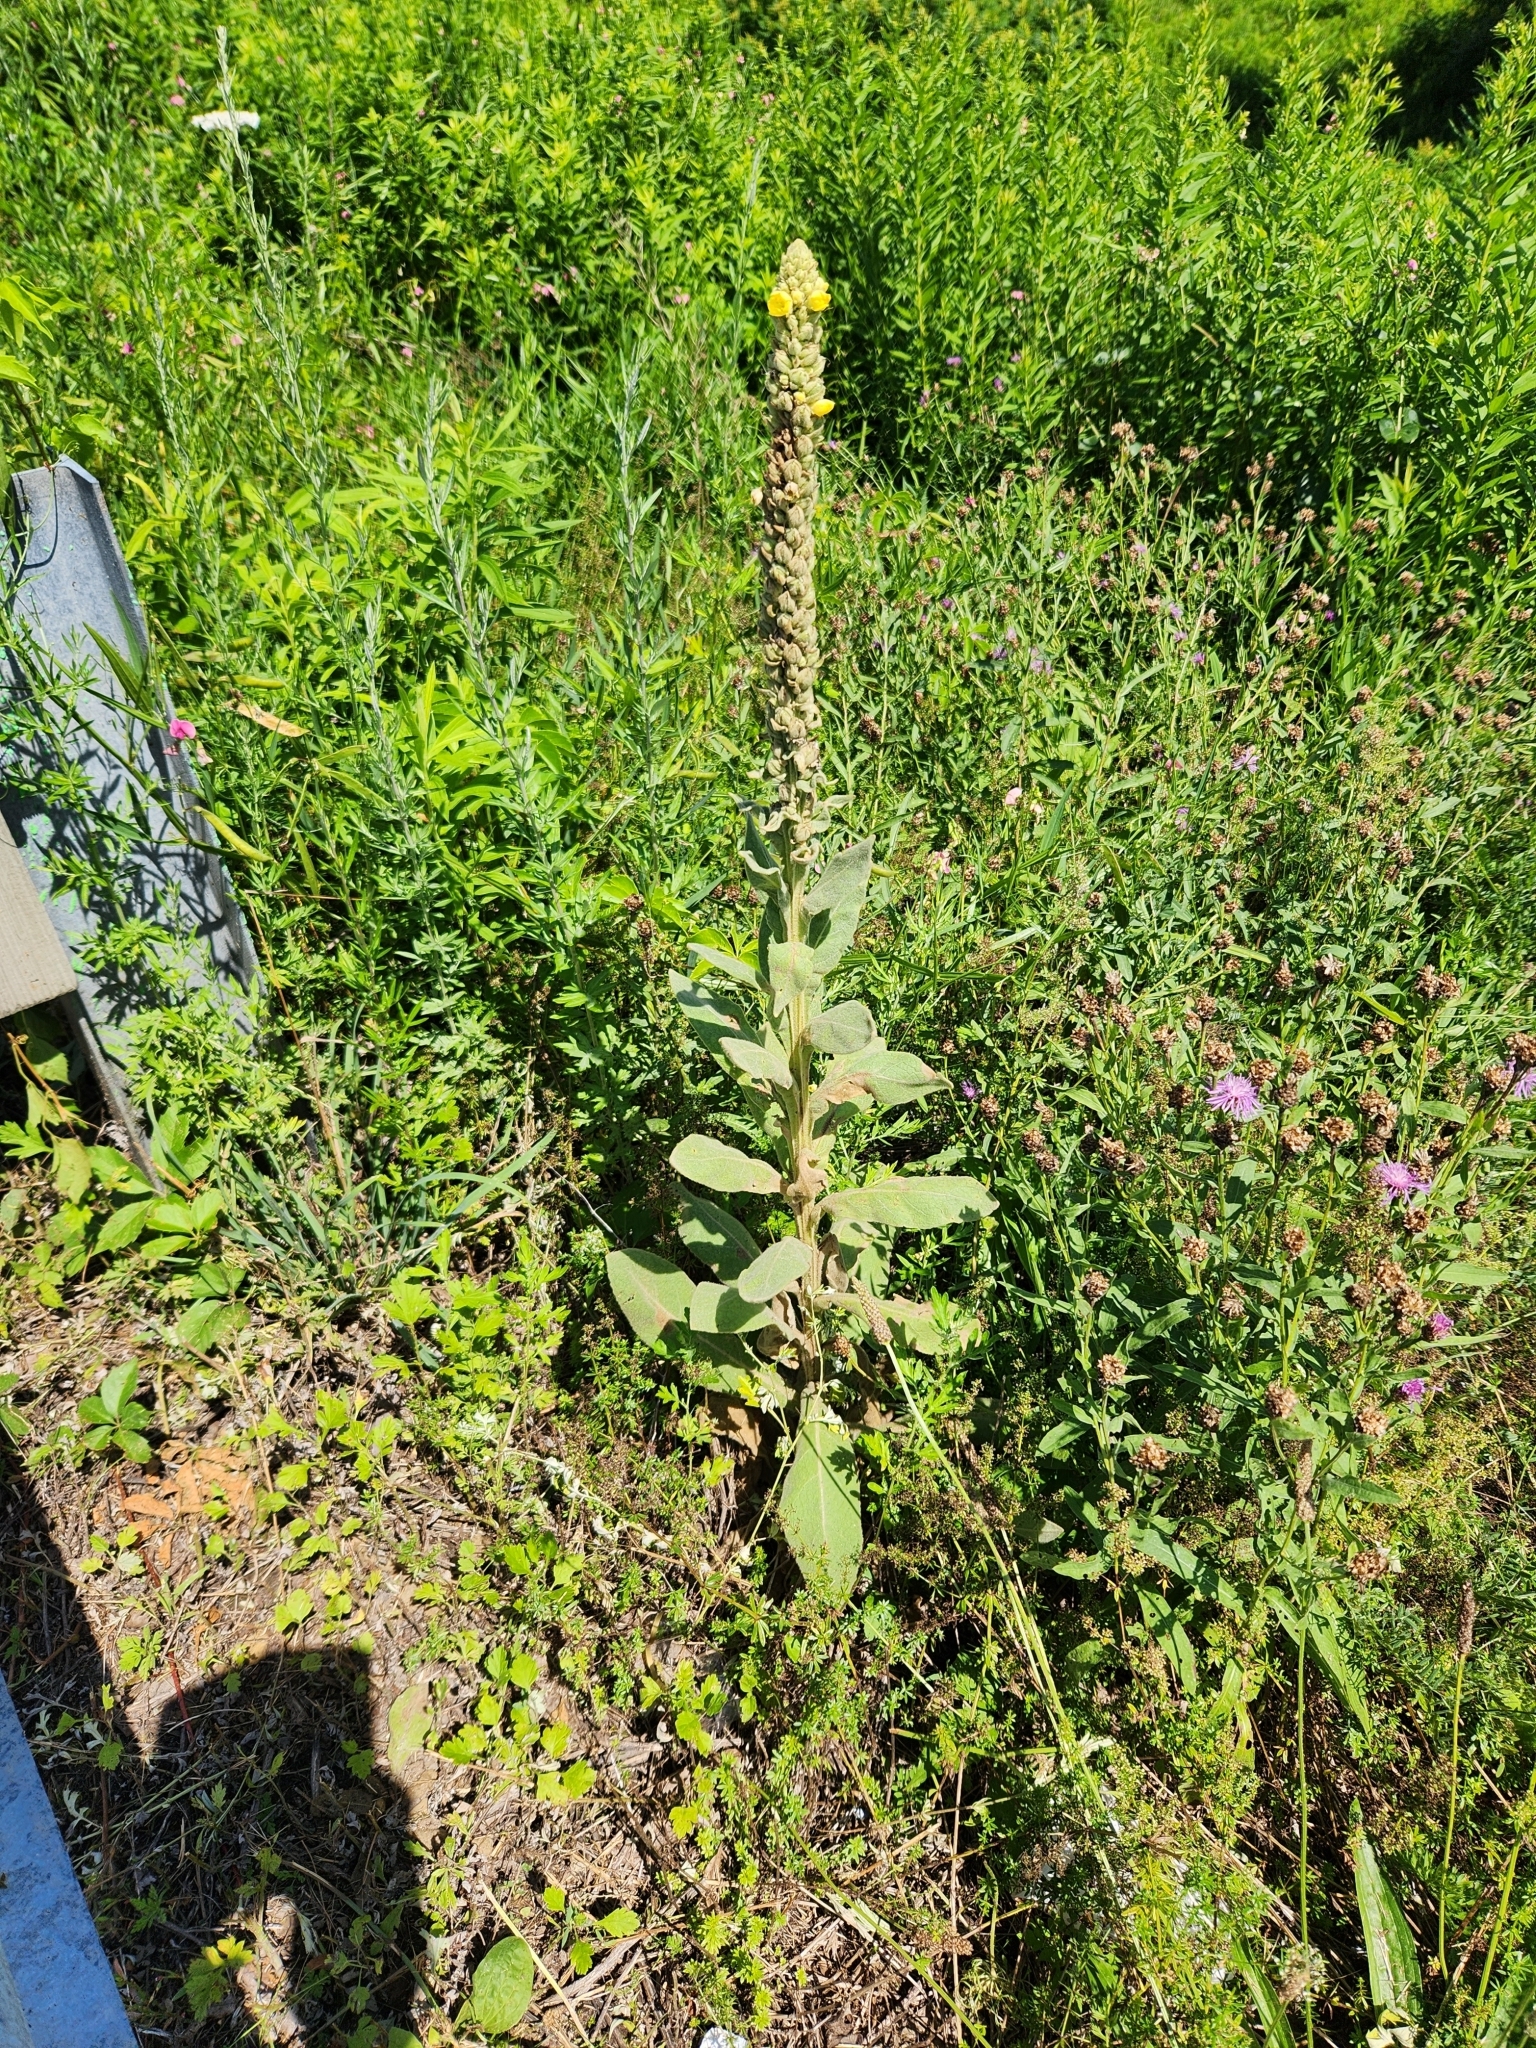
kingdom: Plantae
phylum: Tracheophyta
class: Magnoliopsida
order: Lamiales
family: Scrophulariaceae
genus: Verbascum
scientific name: Verbascum thapsus
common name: Common mullein
